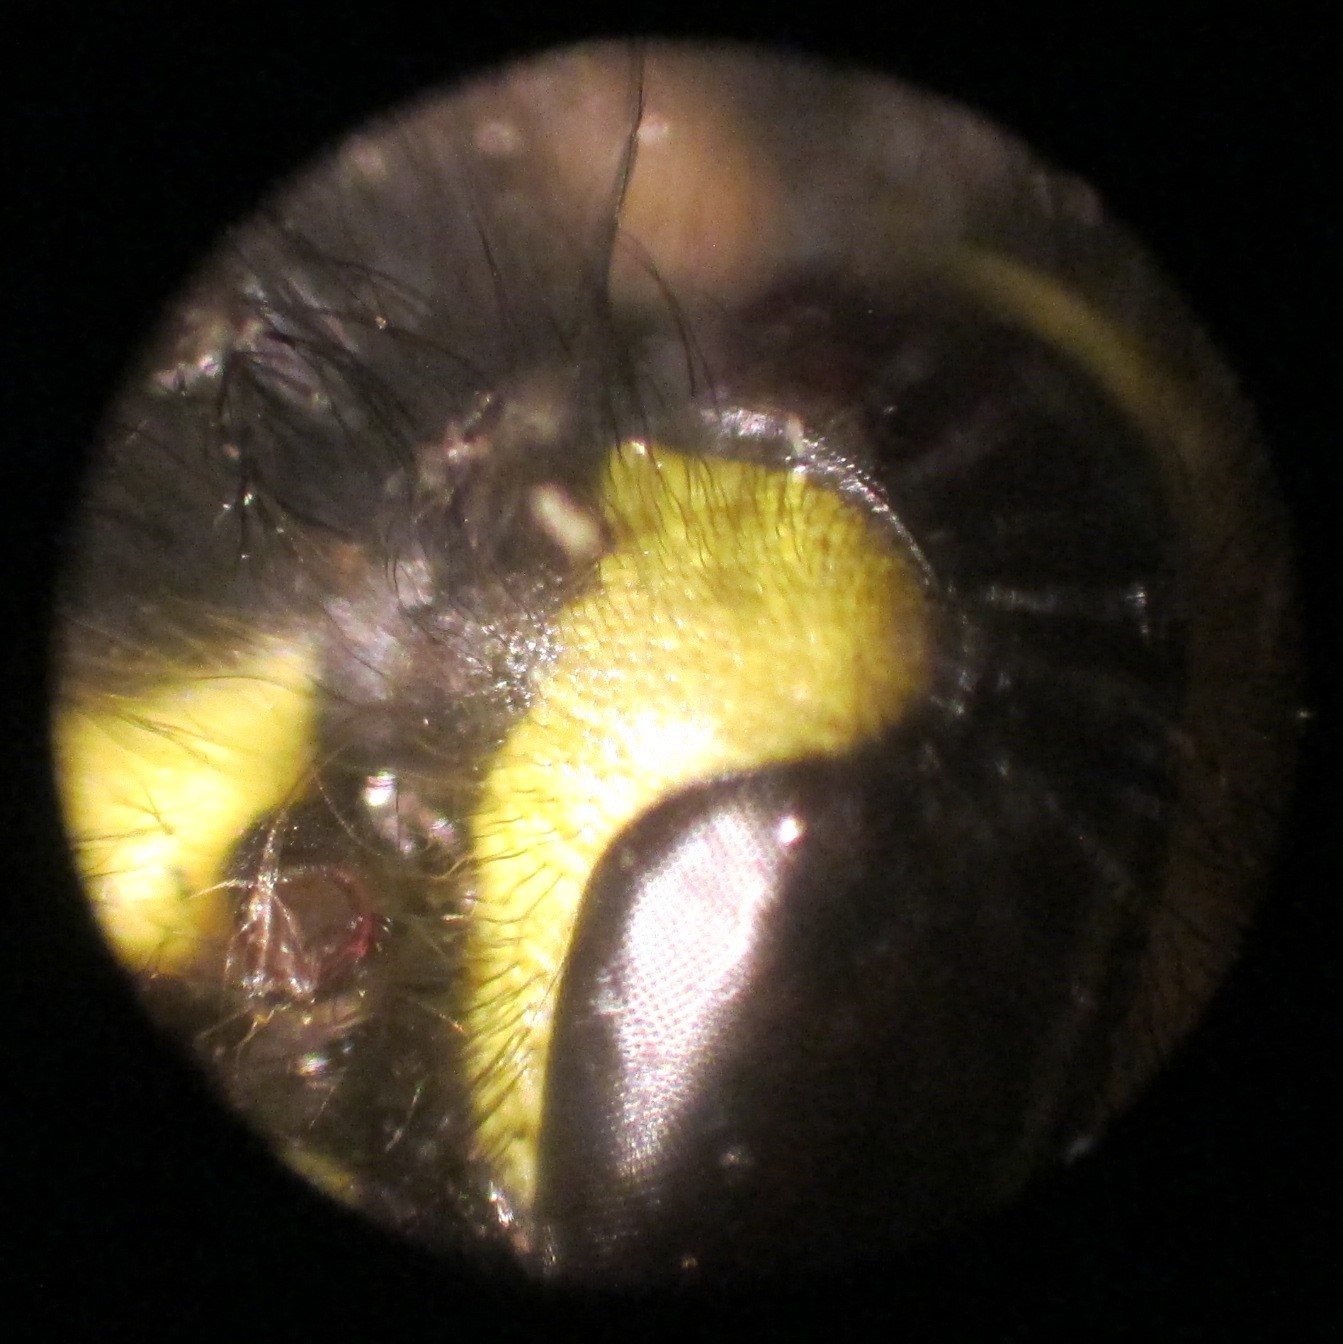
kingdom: Animalia
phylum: Arthropoda
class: Insecta
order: Hymenoptera
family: Vespidae
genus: Vespula
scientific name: Vespula vulgaris
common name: Common wasp
